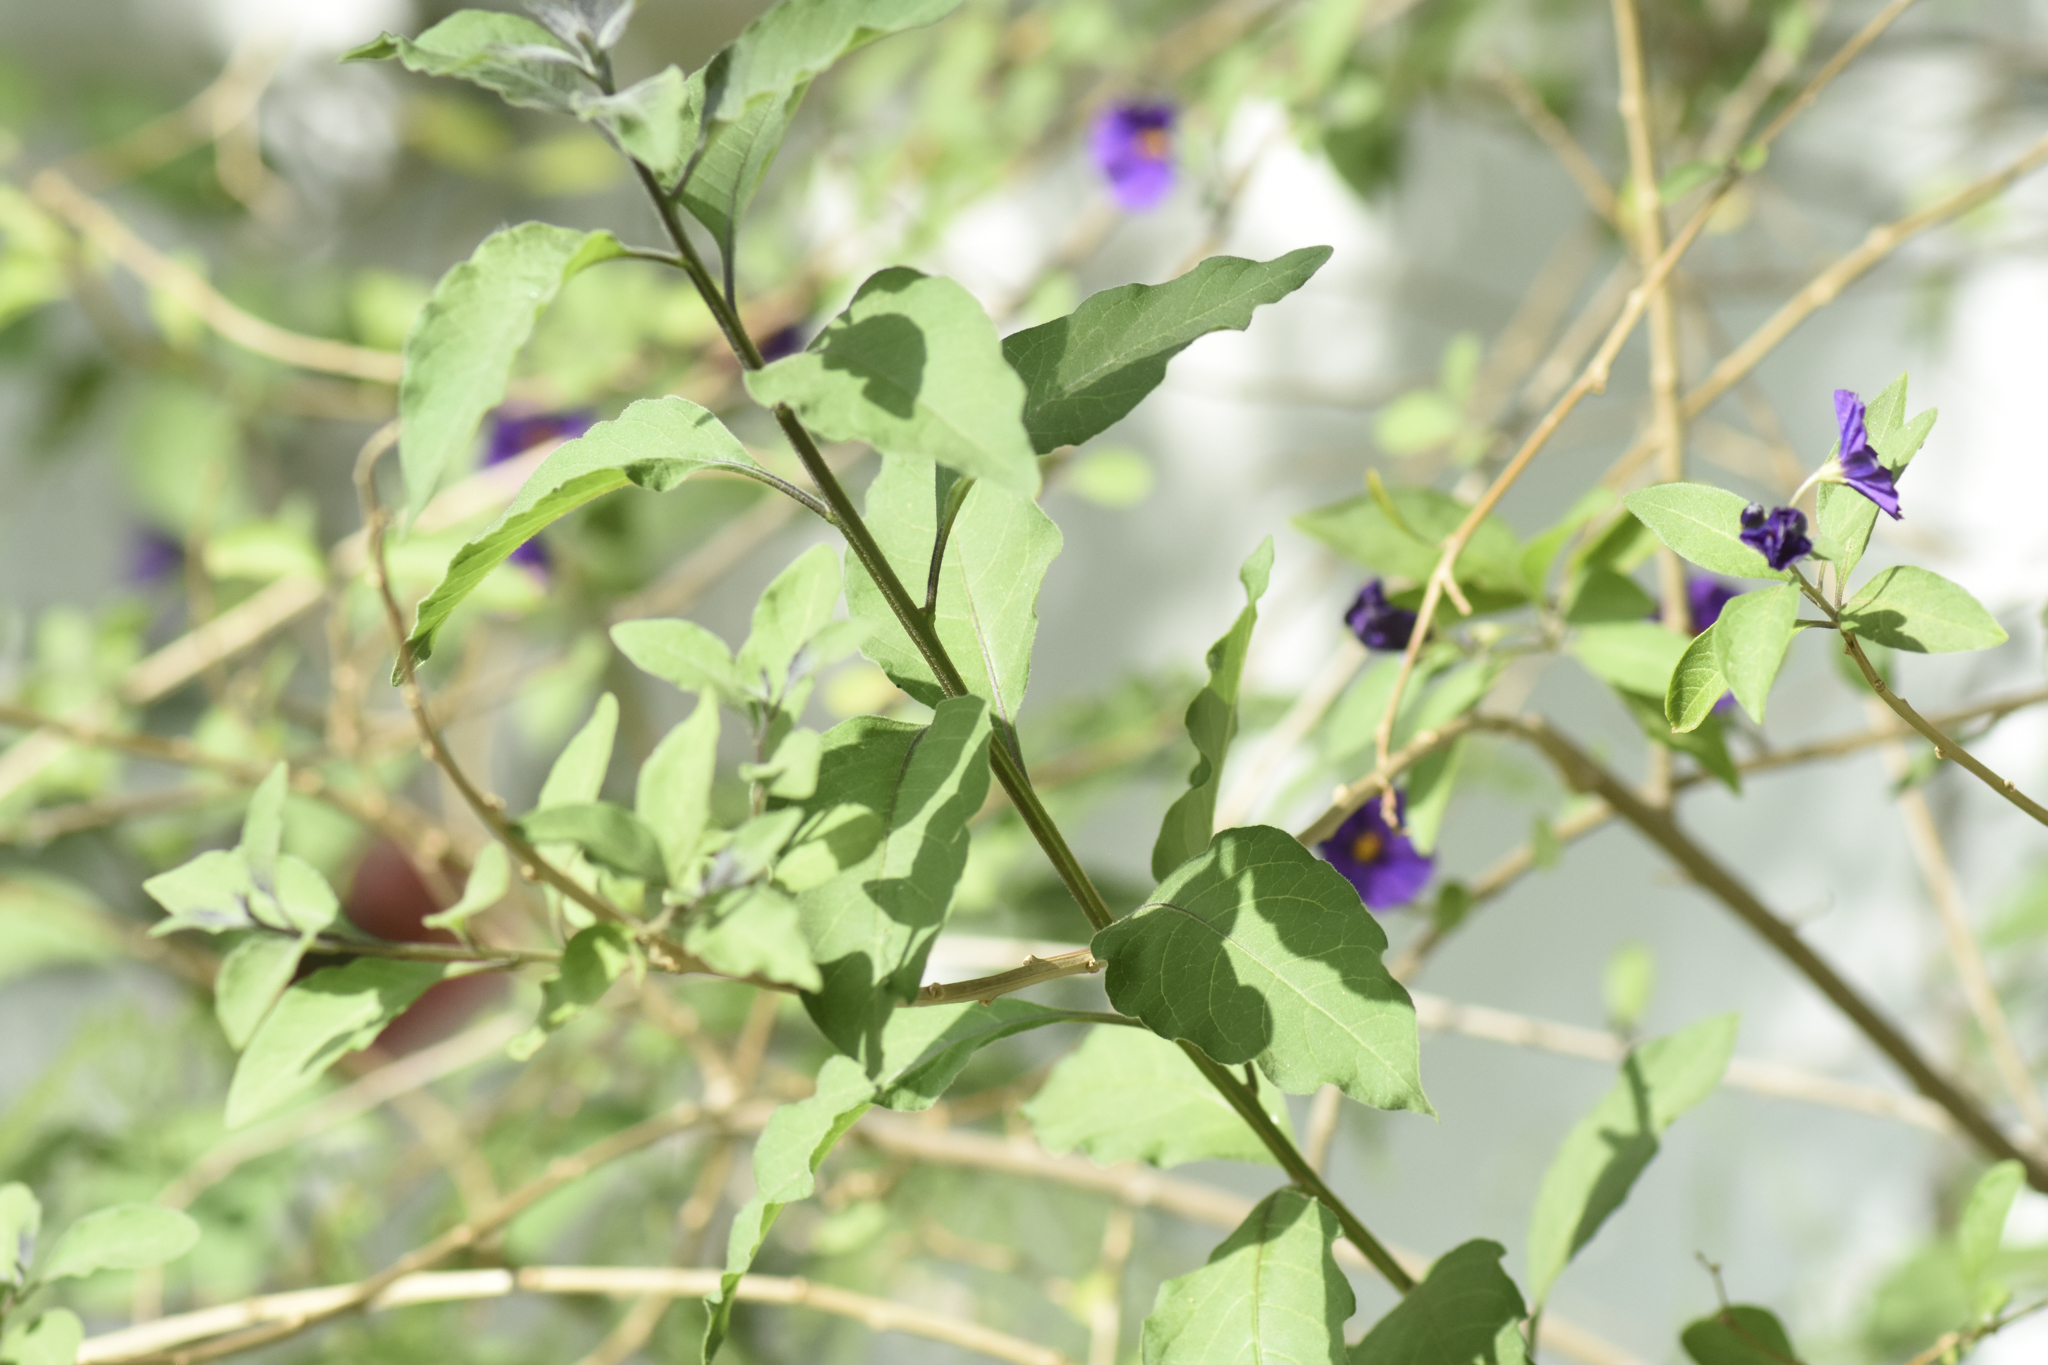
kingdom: Plantae
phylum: Tracheophyta
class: Magnoliopsida
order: Solanales
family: Solanaceae
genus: Lycianthes
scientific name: Lycianthes rantonnetii
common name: Blue potatobush
